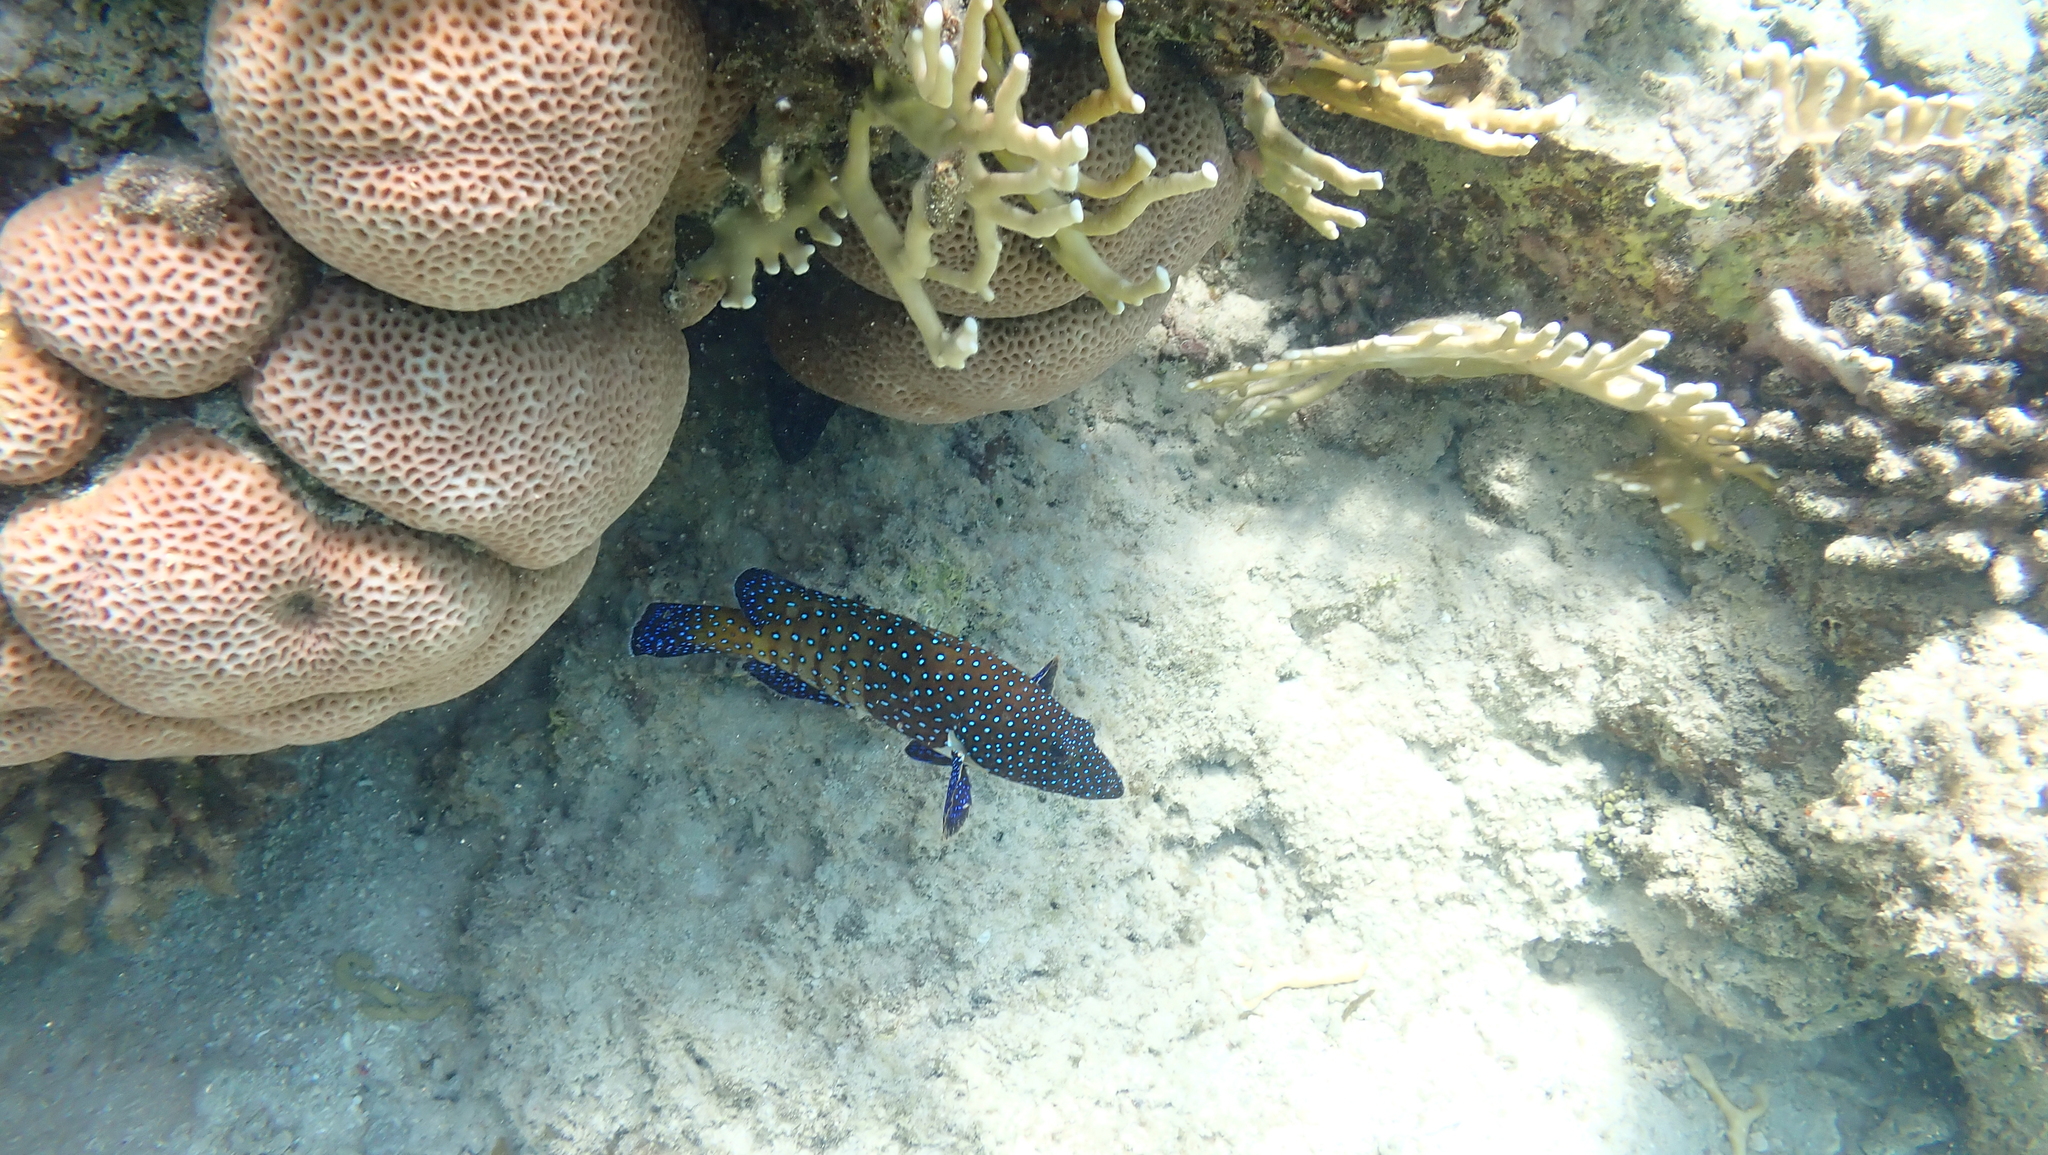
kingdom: Animalia
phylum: Chordata
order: Perciformes
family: Serranidae
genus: Cephalopholis
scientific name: Cephalopholis argus
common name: Peacock grouper
